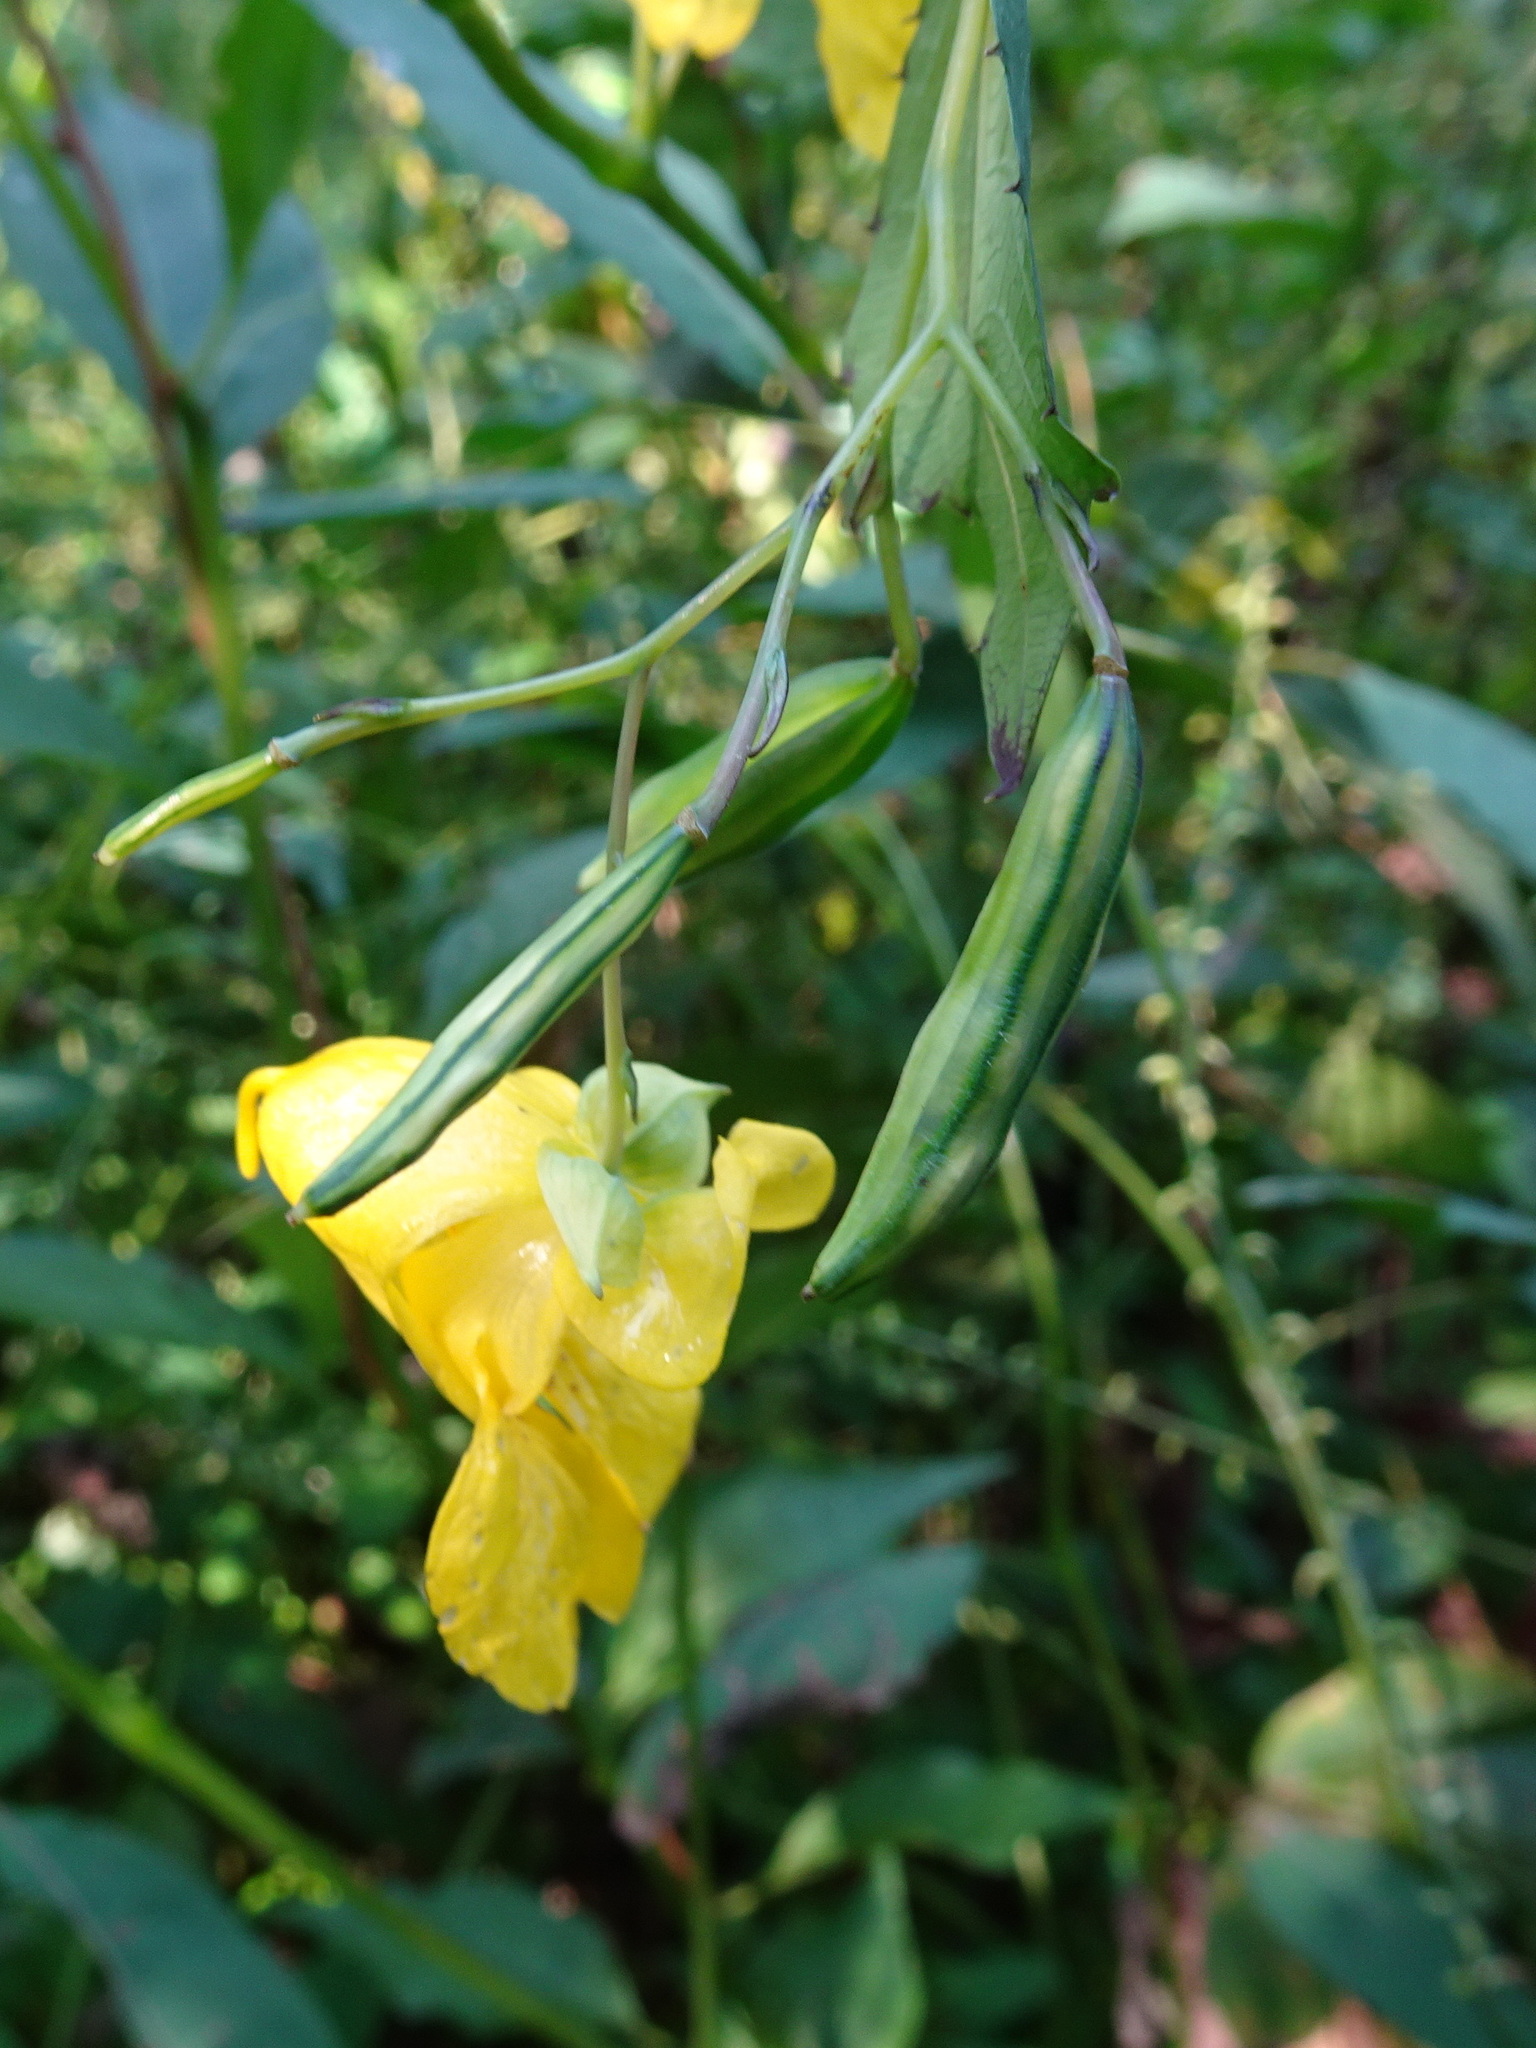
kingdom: Plantae
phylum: Tracheophyta
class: Magnoliopsida
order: Ericales
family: Balsaminaceae
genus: Impatiens
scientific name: Impatiens pallida
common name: Pale snapweed
